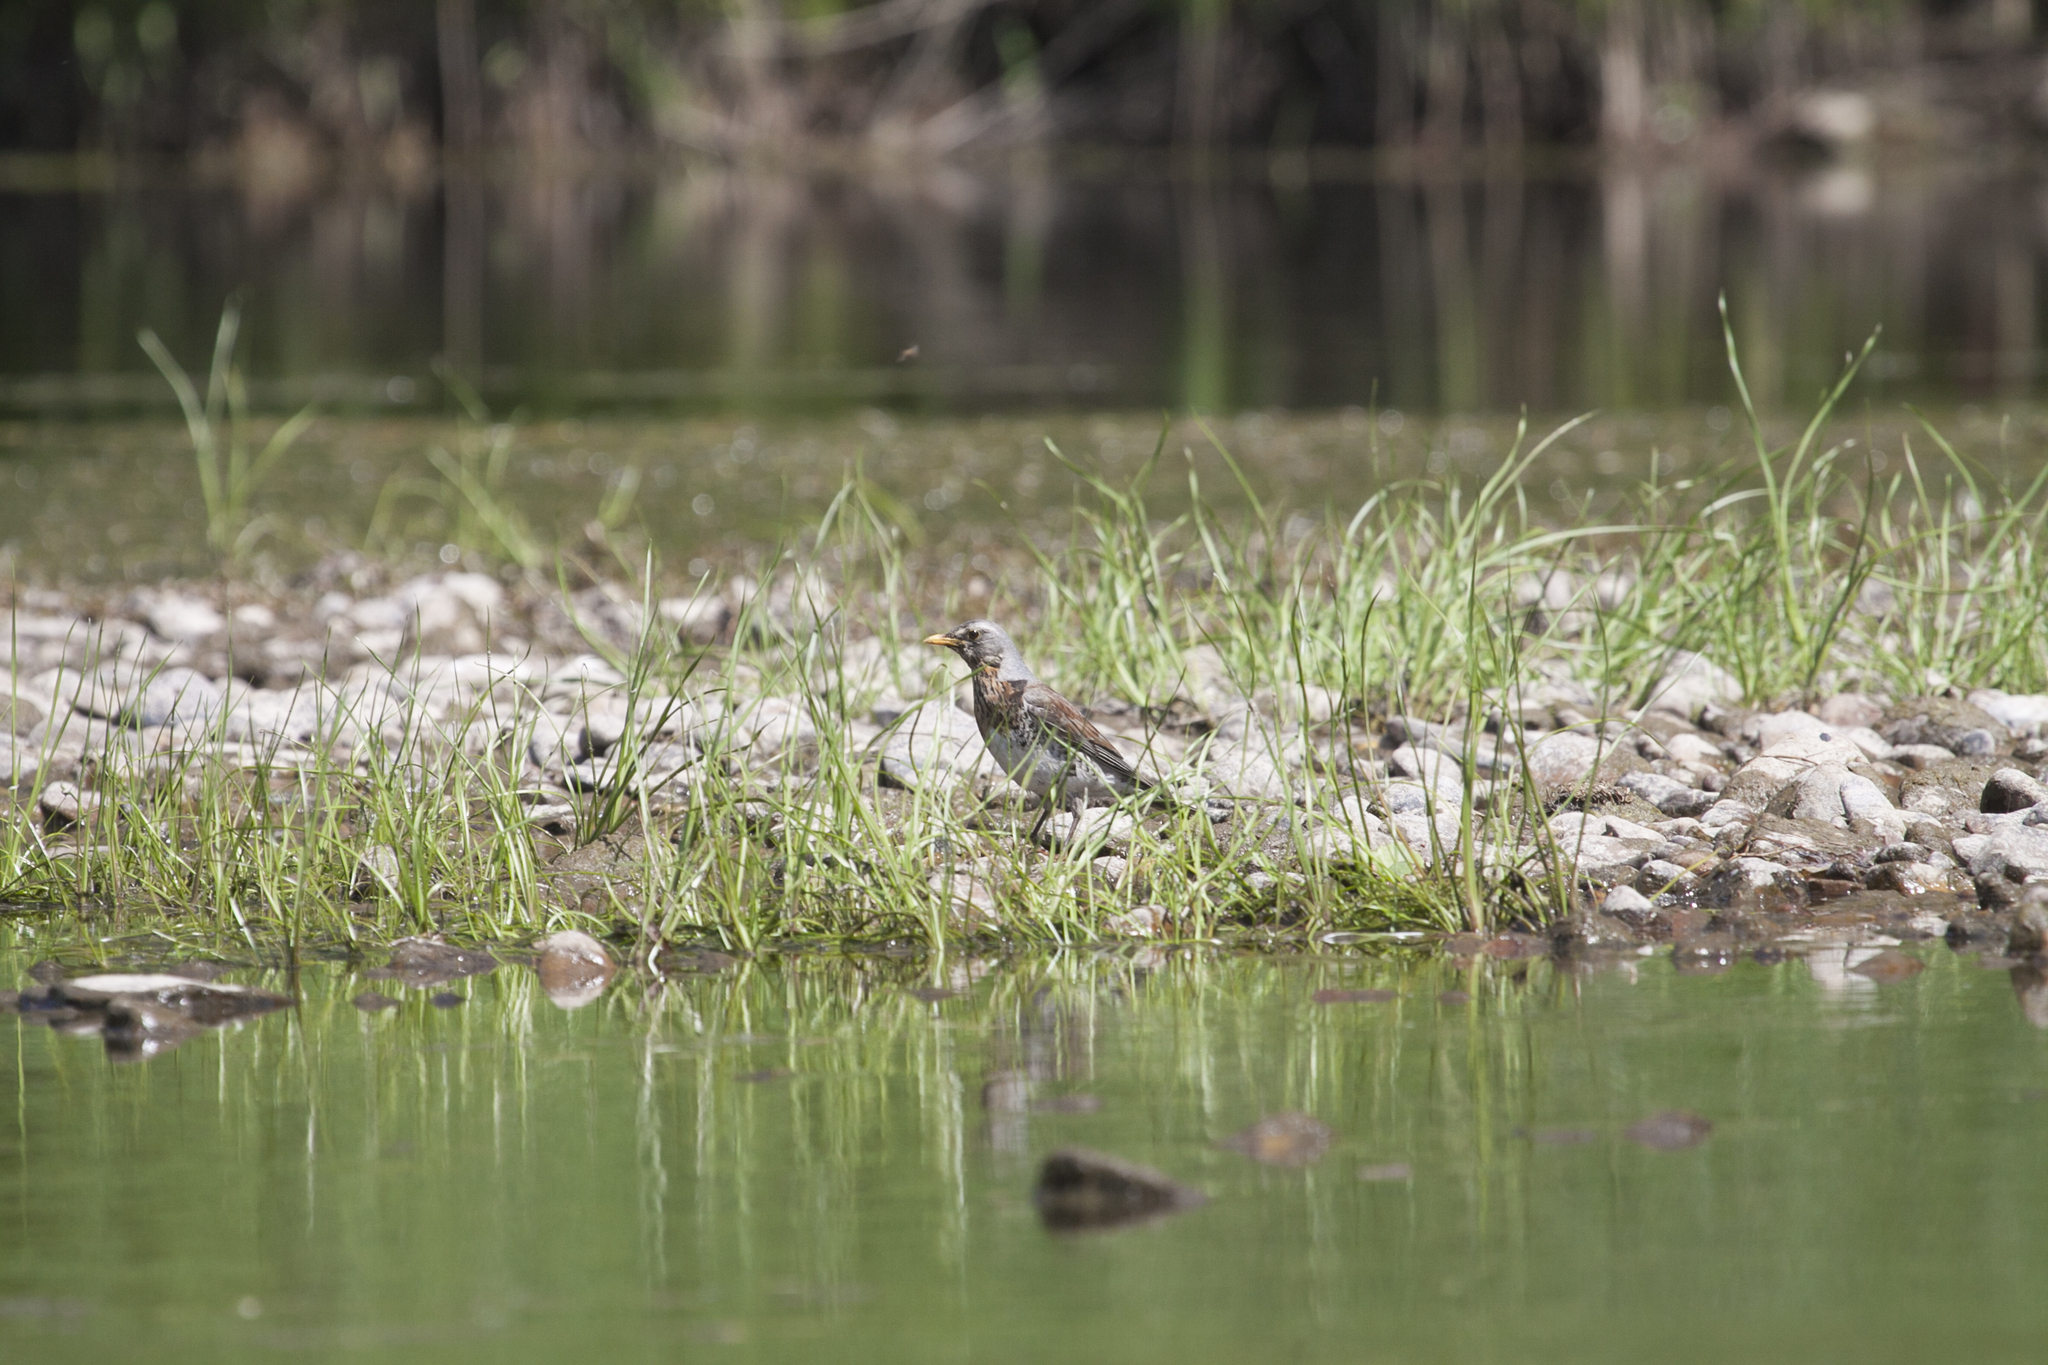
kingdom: Animalia
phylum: Chordata
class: Aves
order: Passeriformes
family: Turdidae
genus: Turdus
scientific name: Turdus pilaris
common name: Fieldfare
